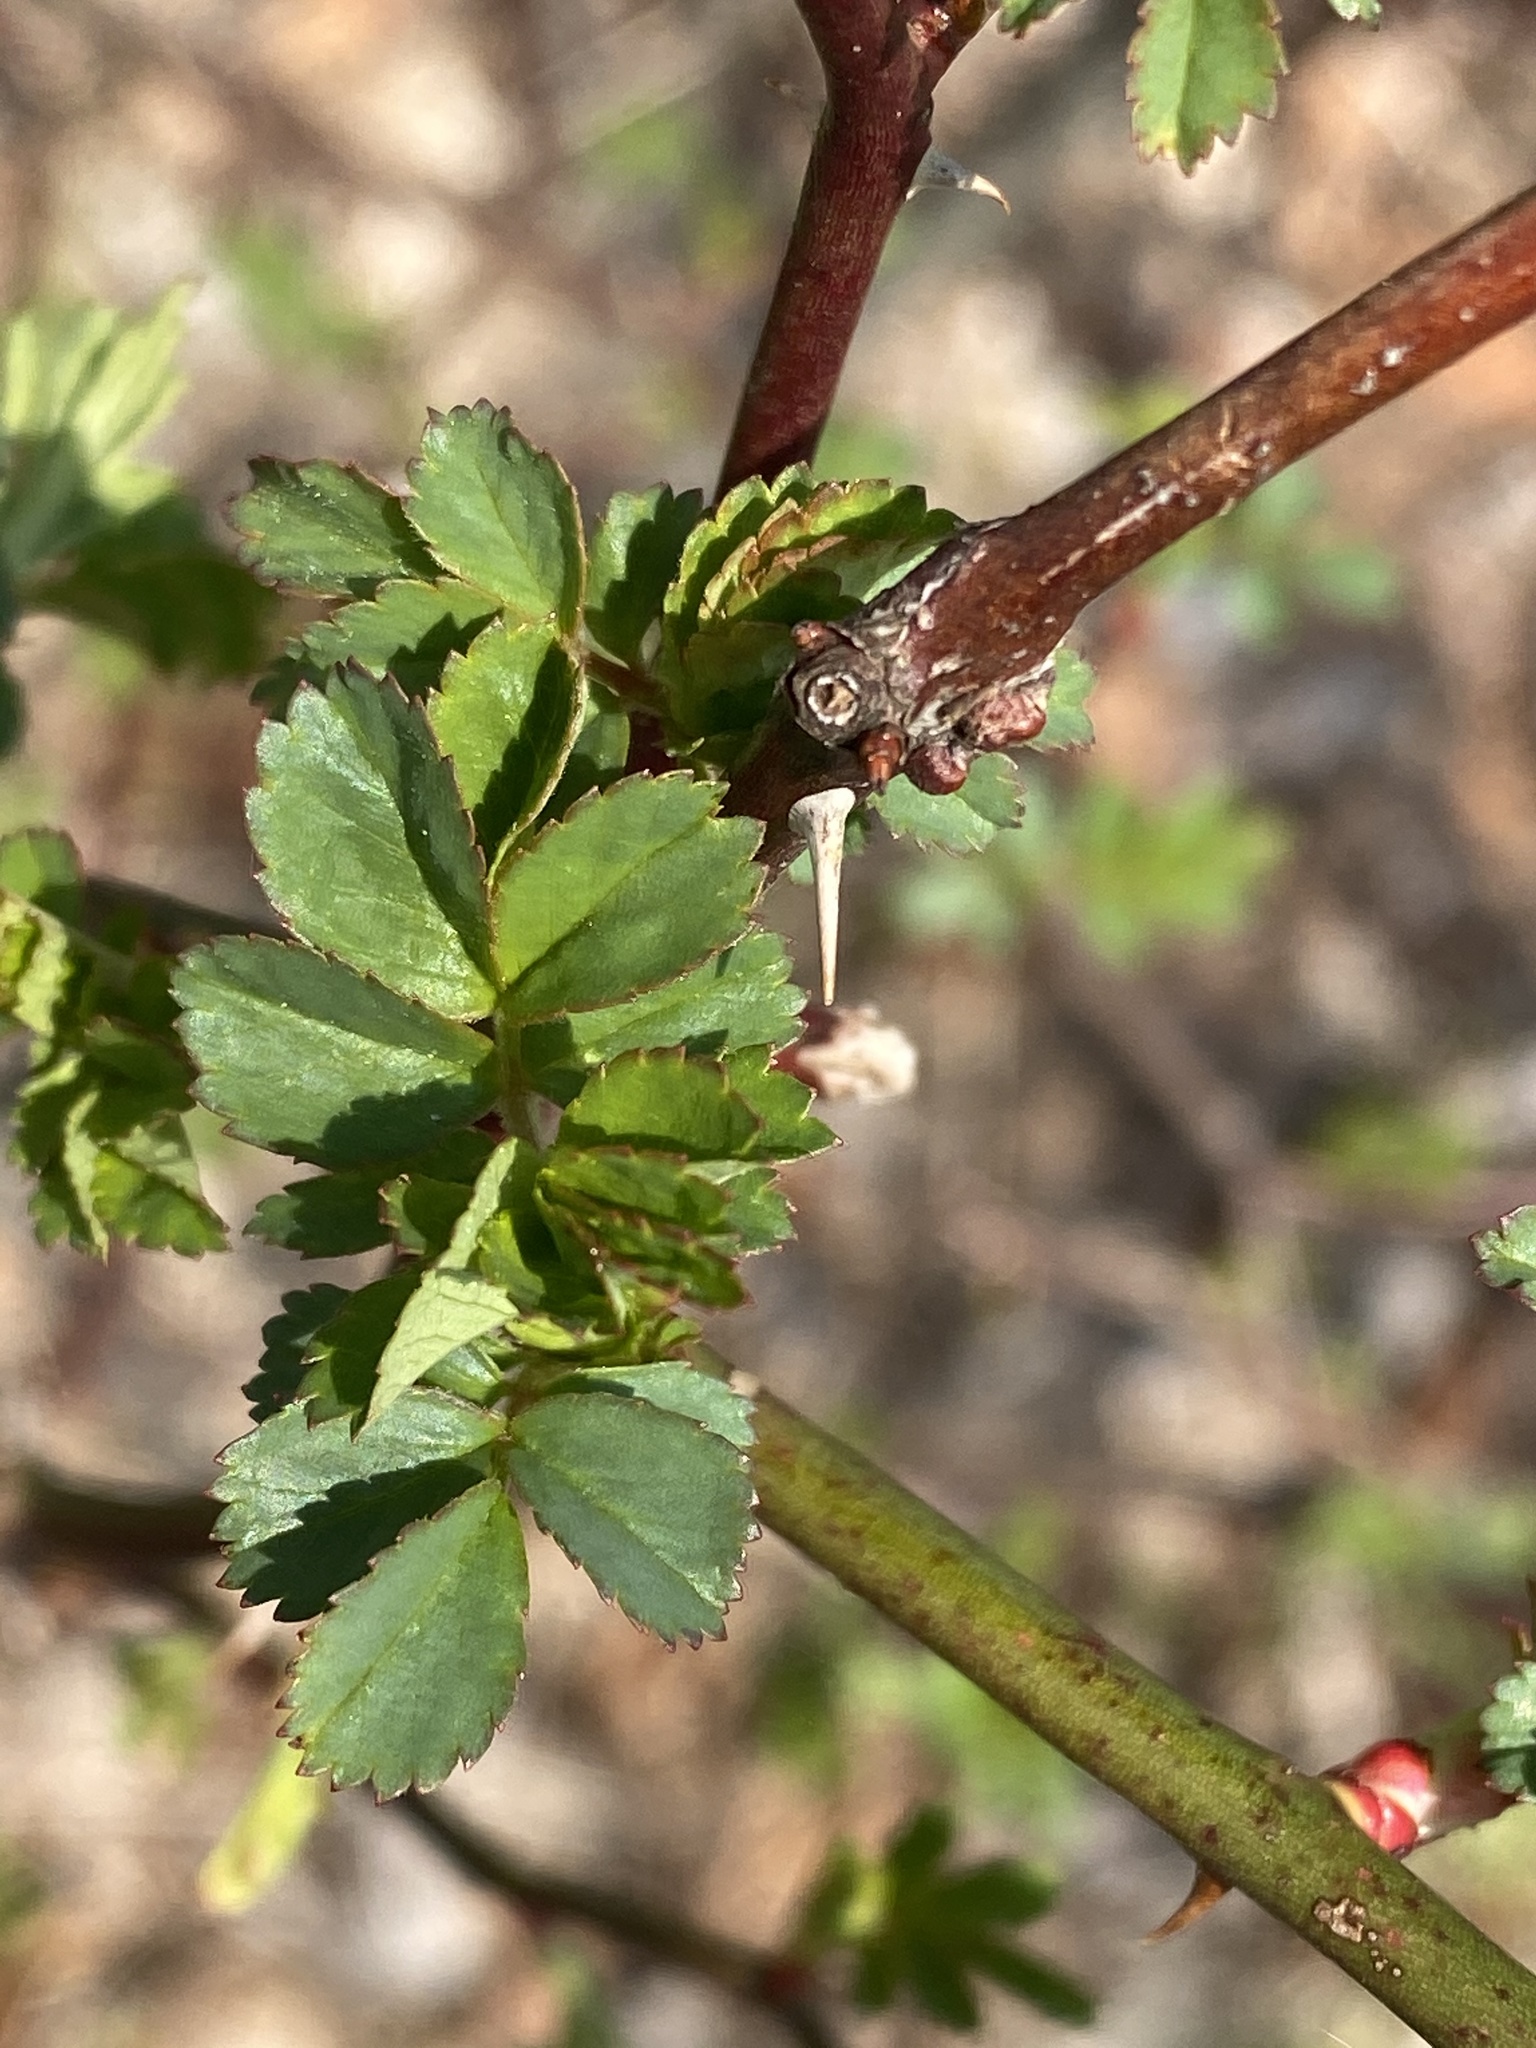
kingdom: Plantae
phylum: Tracheophyta
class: Magnoliopsida
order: Rosales
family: Rosaceae
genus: Rosa
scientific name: Rosa multiflora
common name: Multiflora rose
